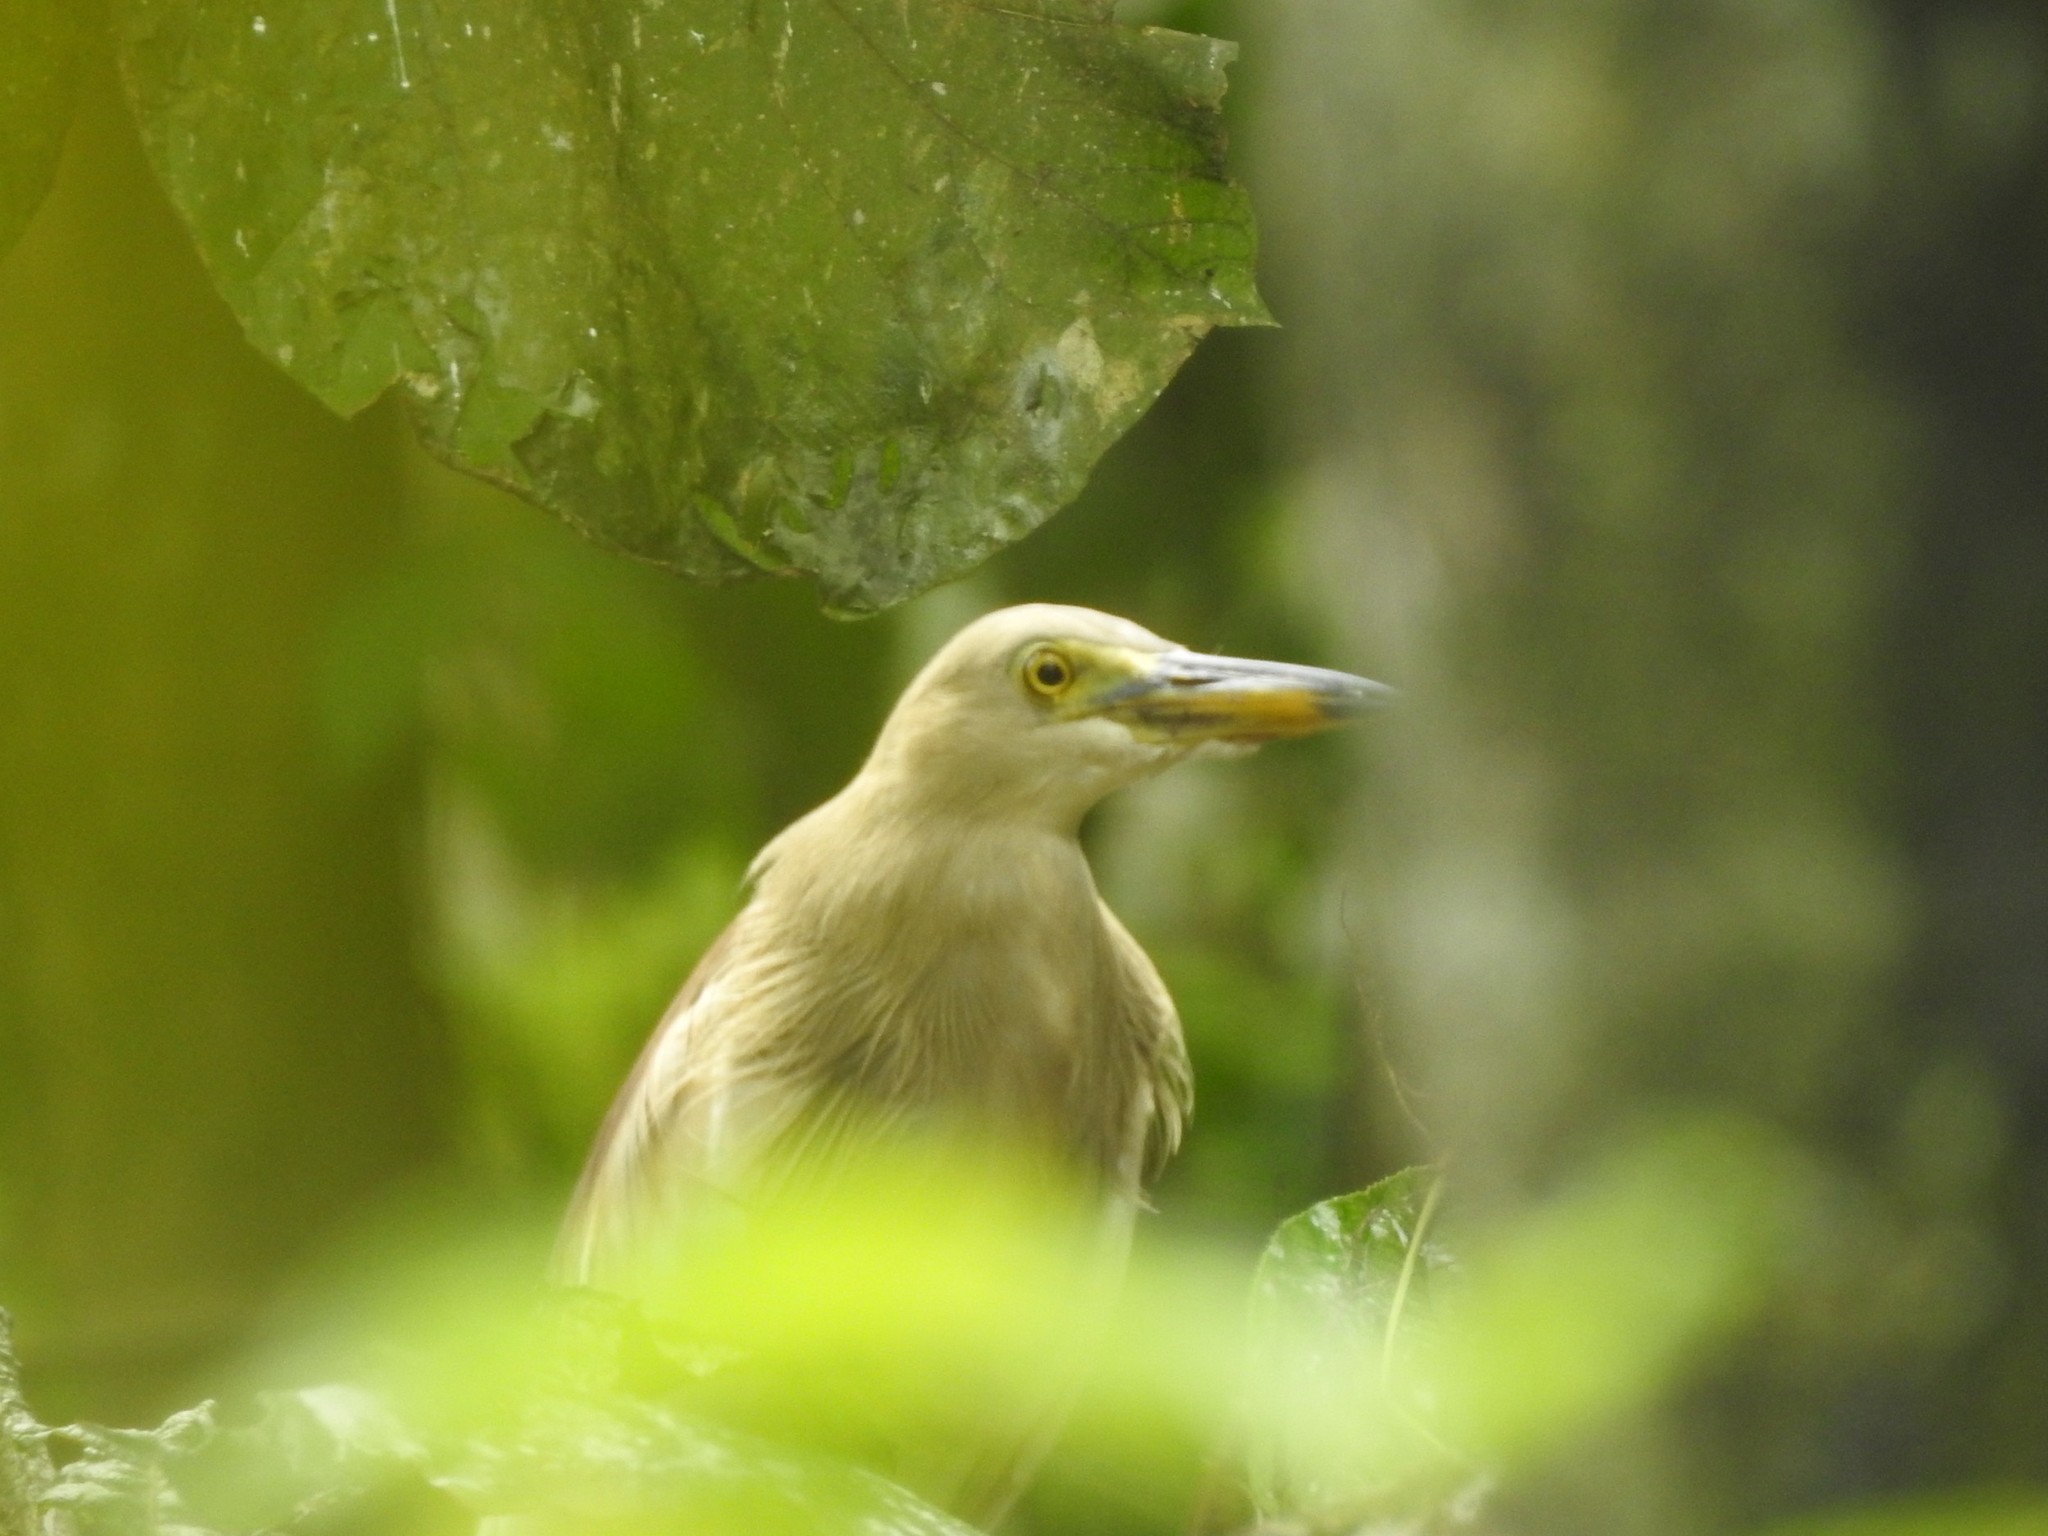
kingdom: Animalia
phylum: Chordata
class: Aves
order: Pelecaniformes
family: Ardeidae
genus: Ardeola
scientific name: Ardeola grayii
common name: Indian pond heron
